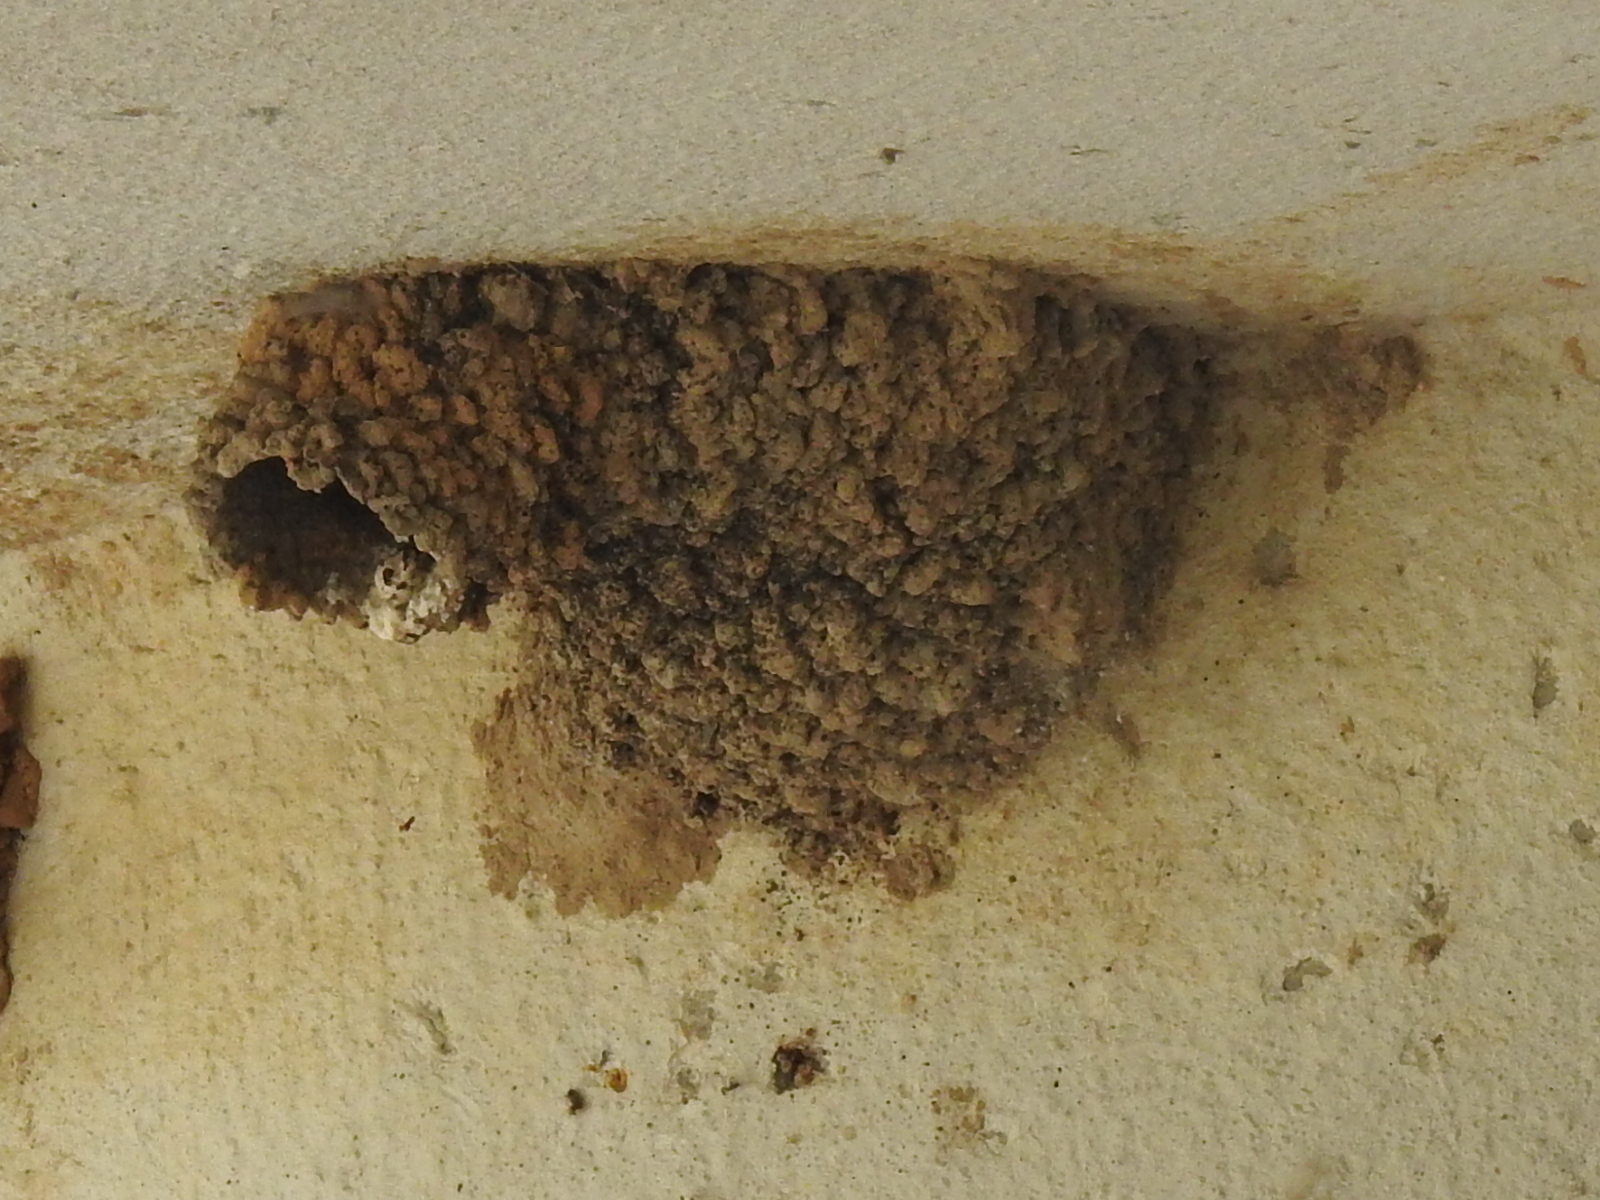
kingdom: Animalia
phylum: Chordata
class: Aves
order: Passeriformes
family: Hirundinidae
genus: Petrochelidon
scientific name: Petrochelidon pyrrhonota
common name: American cliff swallow
